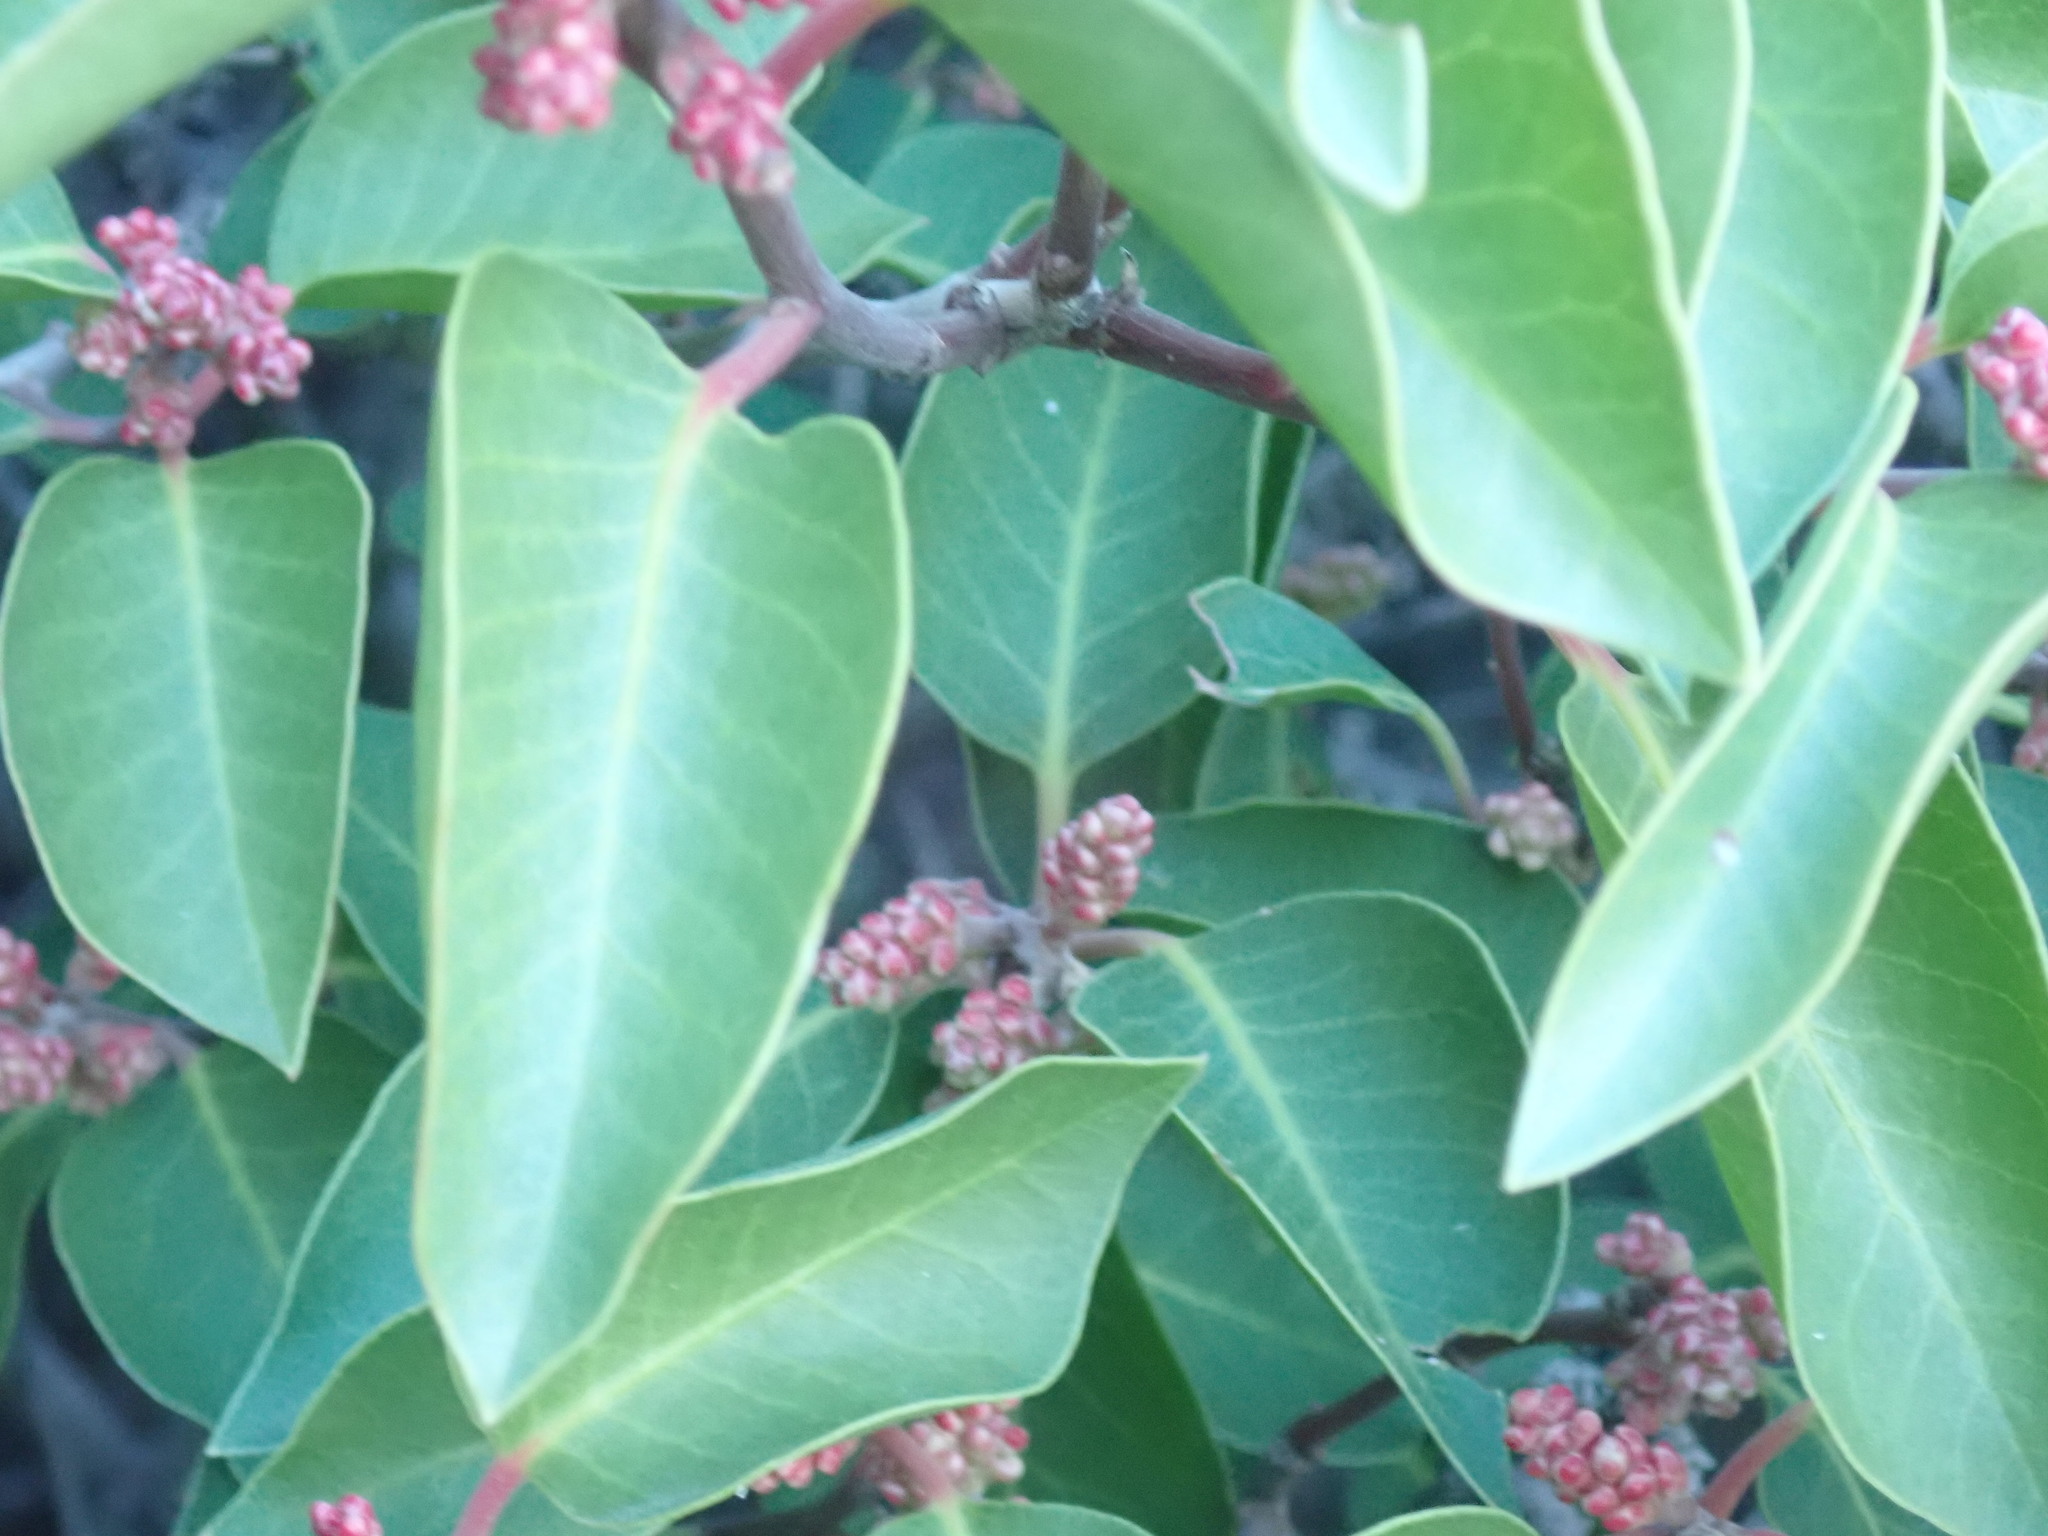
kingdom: Plantae
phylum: Tracheophyta
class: Magnoliopsida
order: Sapindales
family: Anacardiaceae
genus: Rhus
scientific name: Rhus ovata
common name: Sugar sumac
